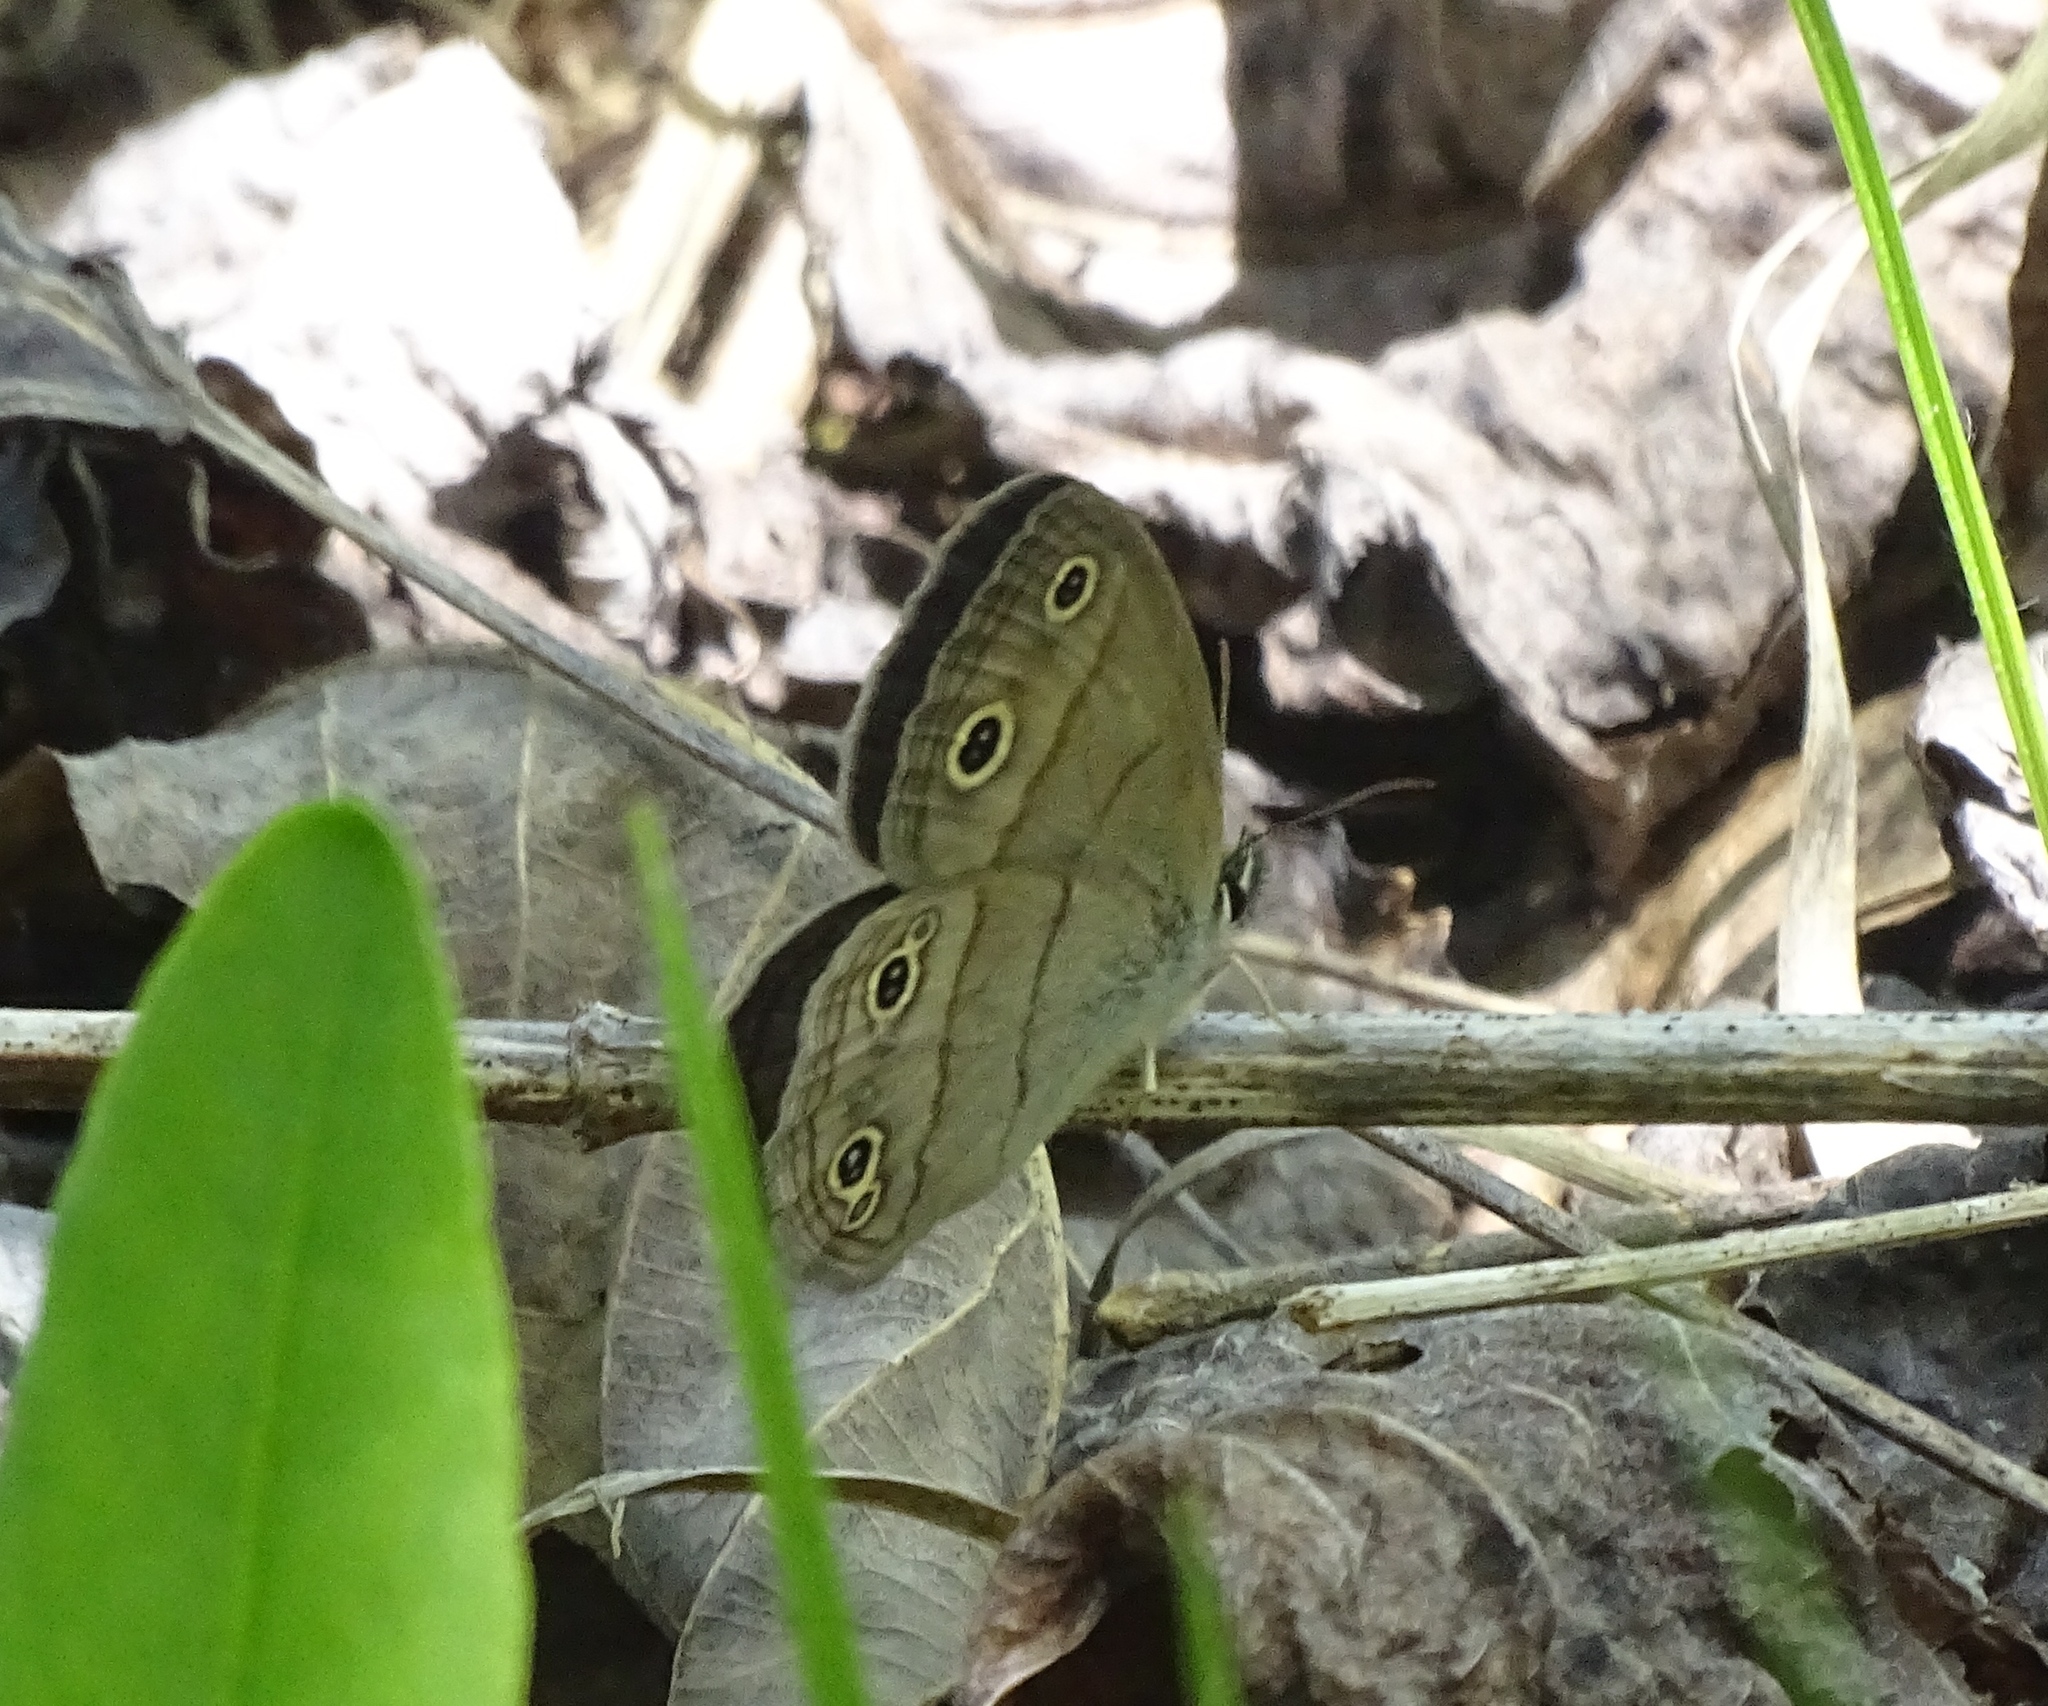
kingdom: Animalia
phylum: Arthropoda
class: Insecta
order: Lepidoptera
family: Nymphalidae
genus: Euptychia
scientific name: Euptychia cymela
